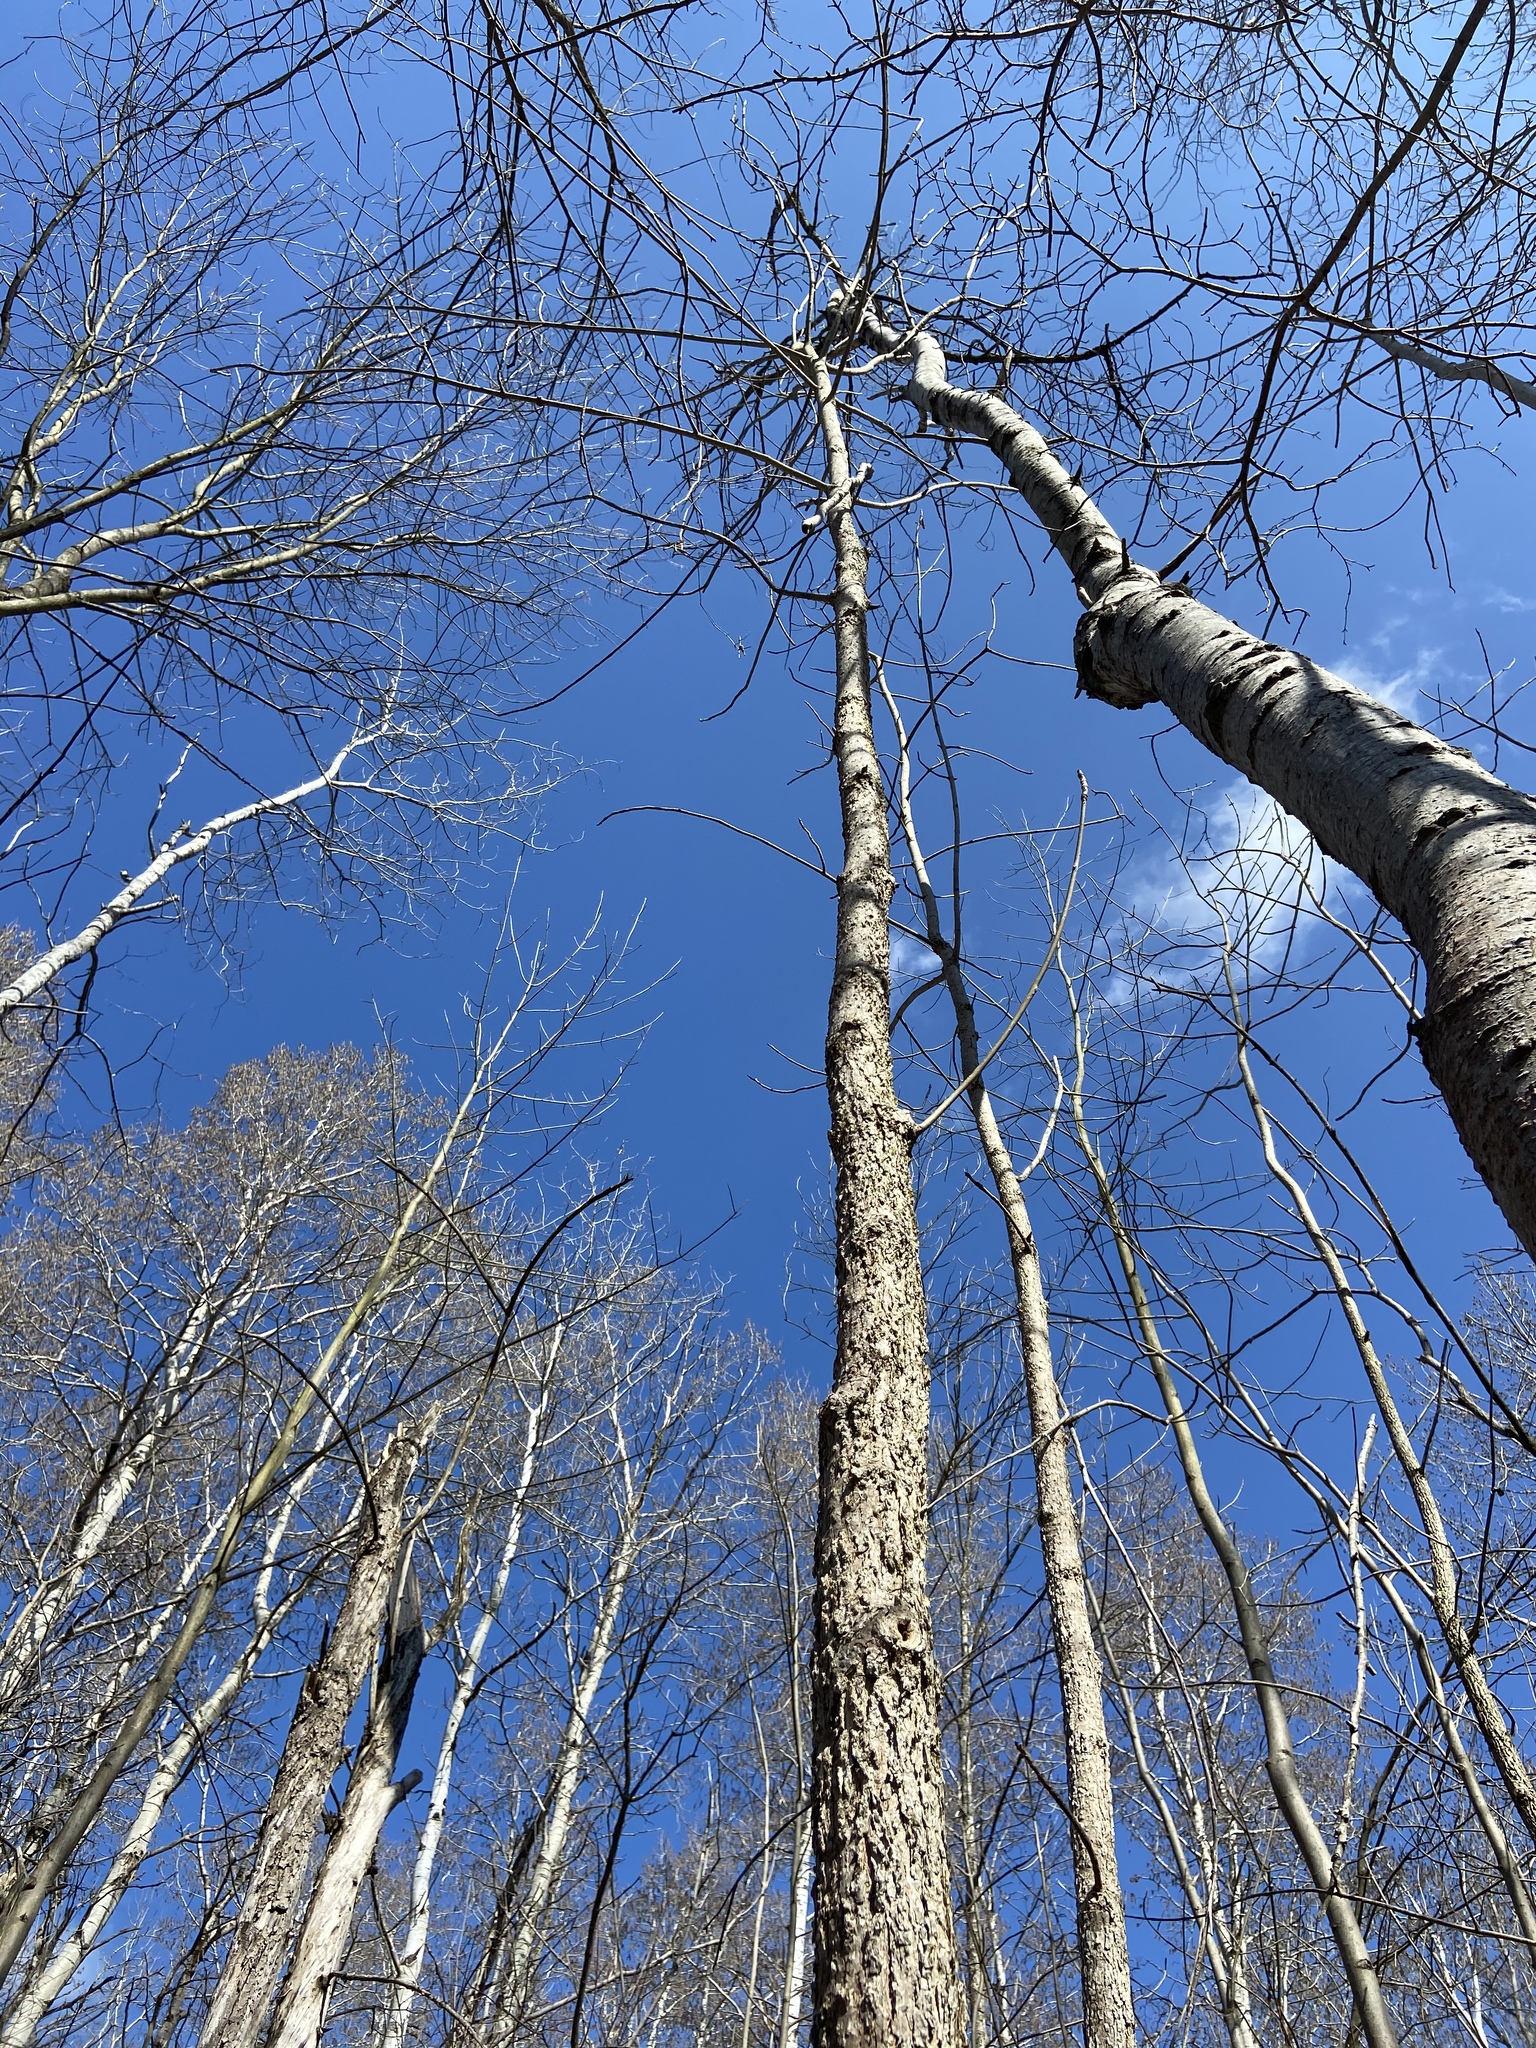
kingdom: Plantae
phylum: Tracheophyta
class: Magnoliopsida
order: Lamiales
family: Oleaceae
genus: Fraxinus
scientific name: Fraxinus nigra
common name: Black ash
